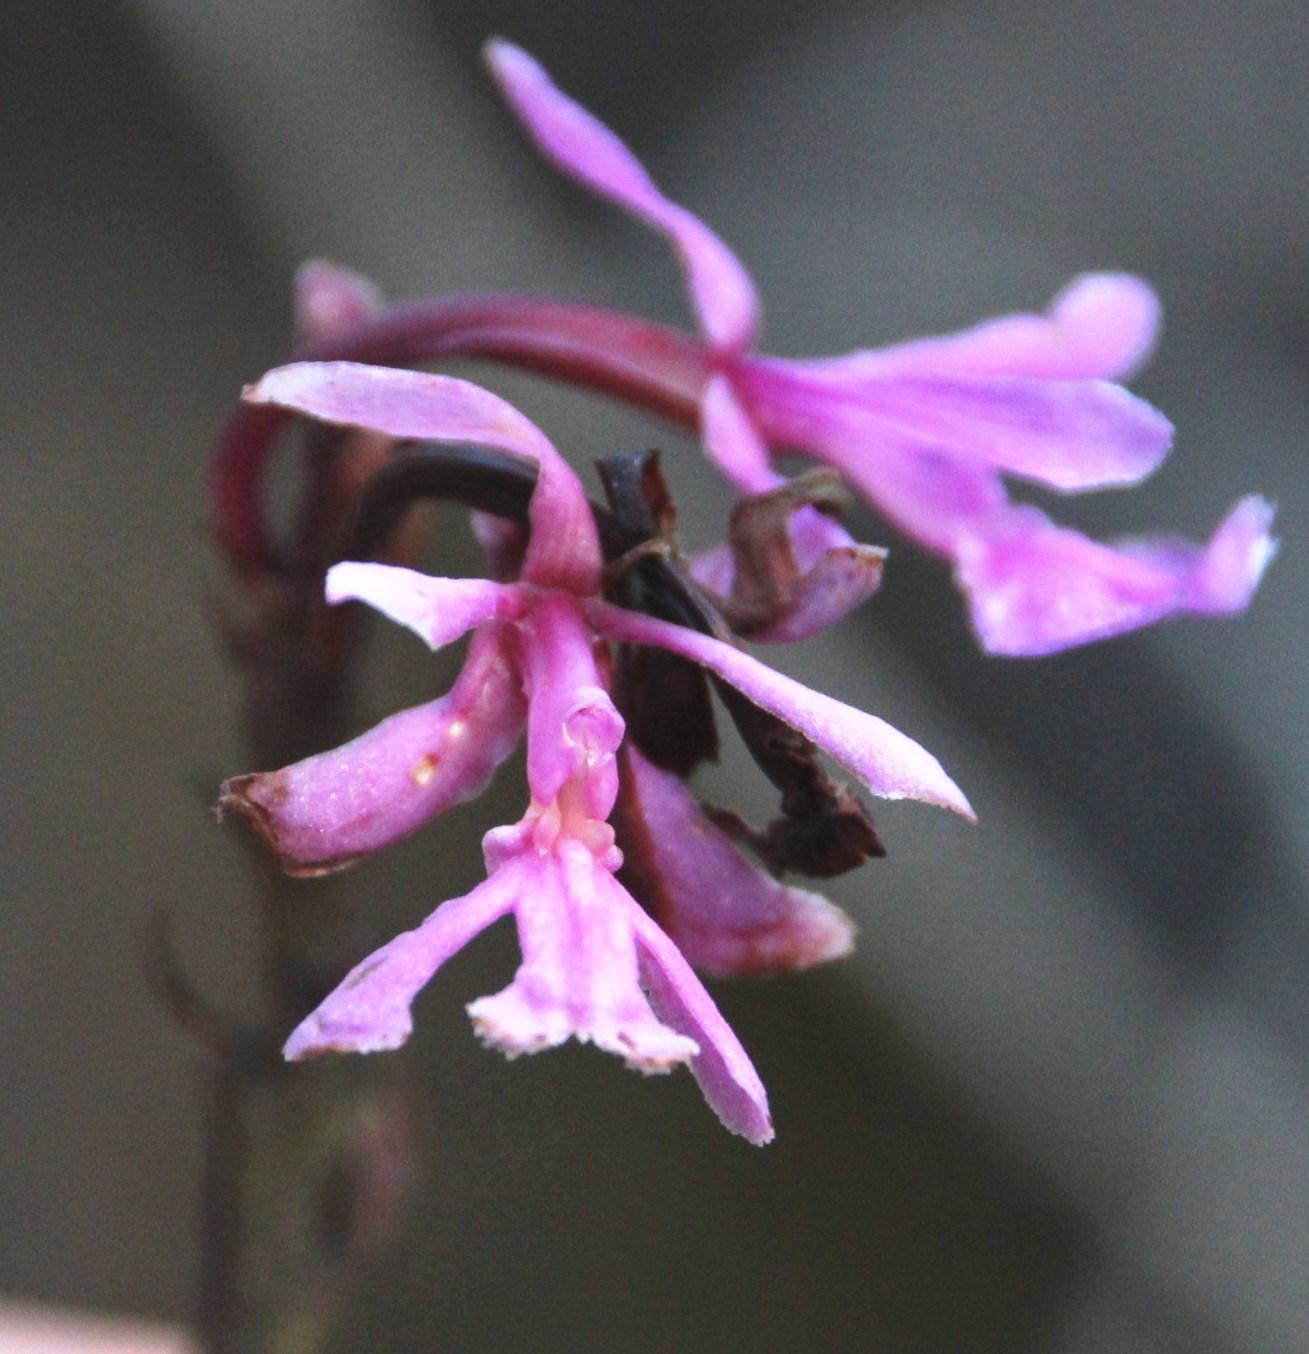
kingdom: Plantae
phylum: Tracheophyta
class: Liliopsida
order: Asparagales
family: Orchidaceae
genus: Epidendrum
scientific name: Epidendrum blepharistes
